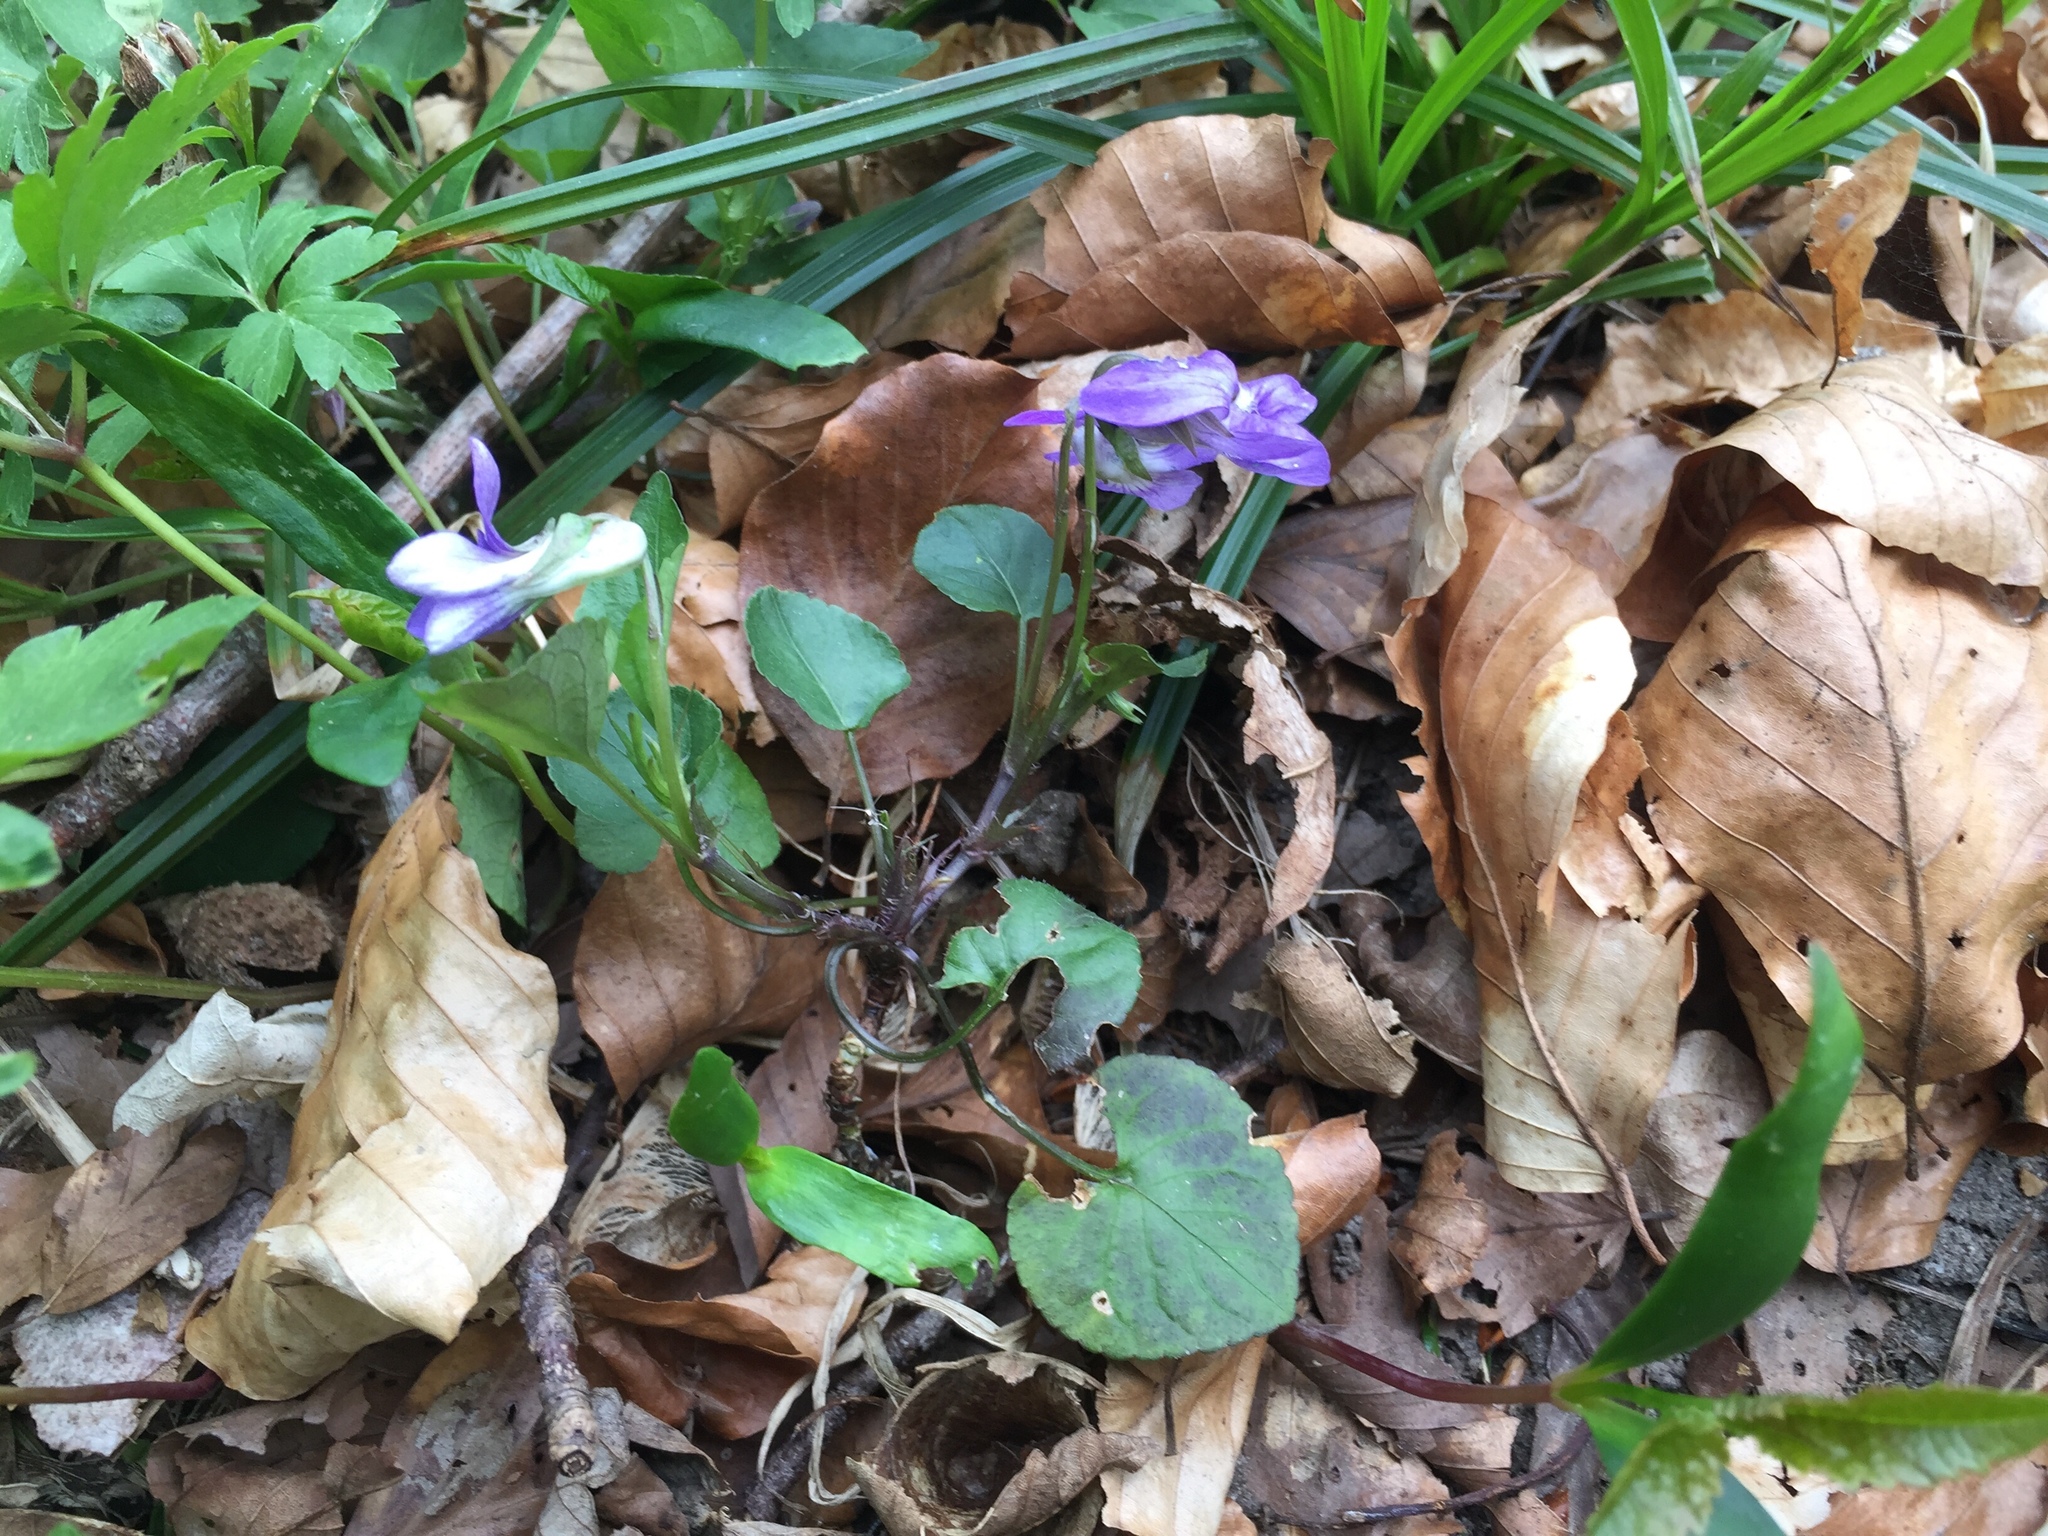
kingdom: Plantae
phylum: Tracheophyta
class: Magnoliopsida
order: Malpighiales
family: Violaceae
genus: Viola
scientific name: Viola riviniana
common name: Common dog-violet
